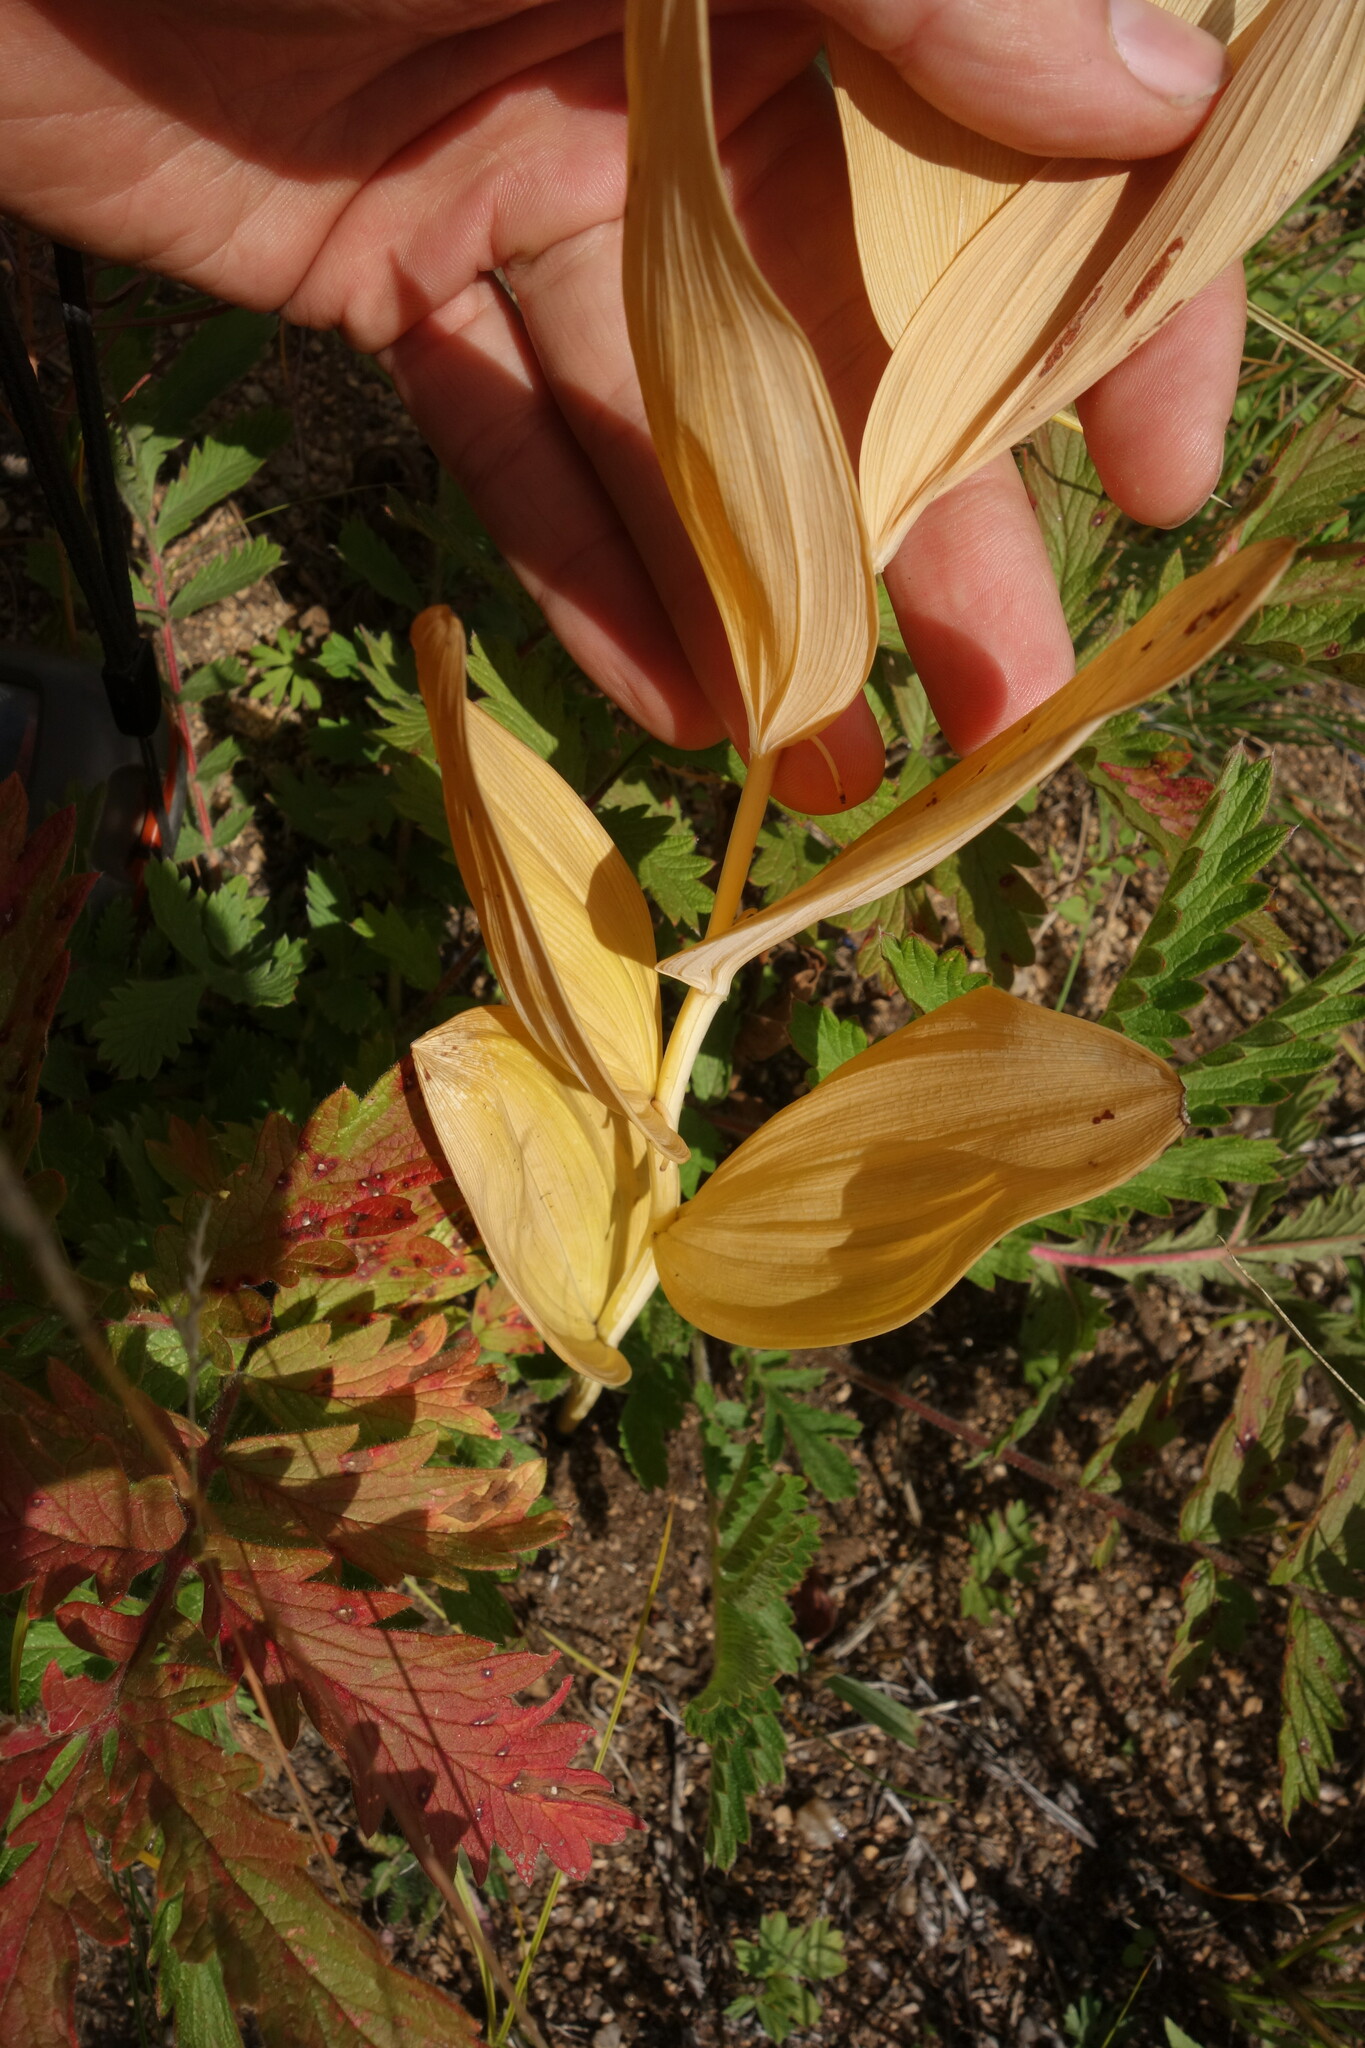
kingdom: Plantae
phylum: Tracheophyta
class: Liliopsida
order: Asparagales
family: Asparagaceae
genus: Polygonatum
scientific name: Polygonatum odoratum
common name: Angular solomon's-seal
